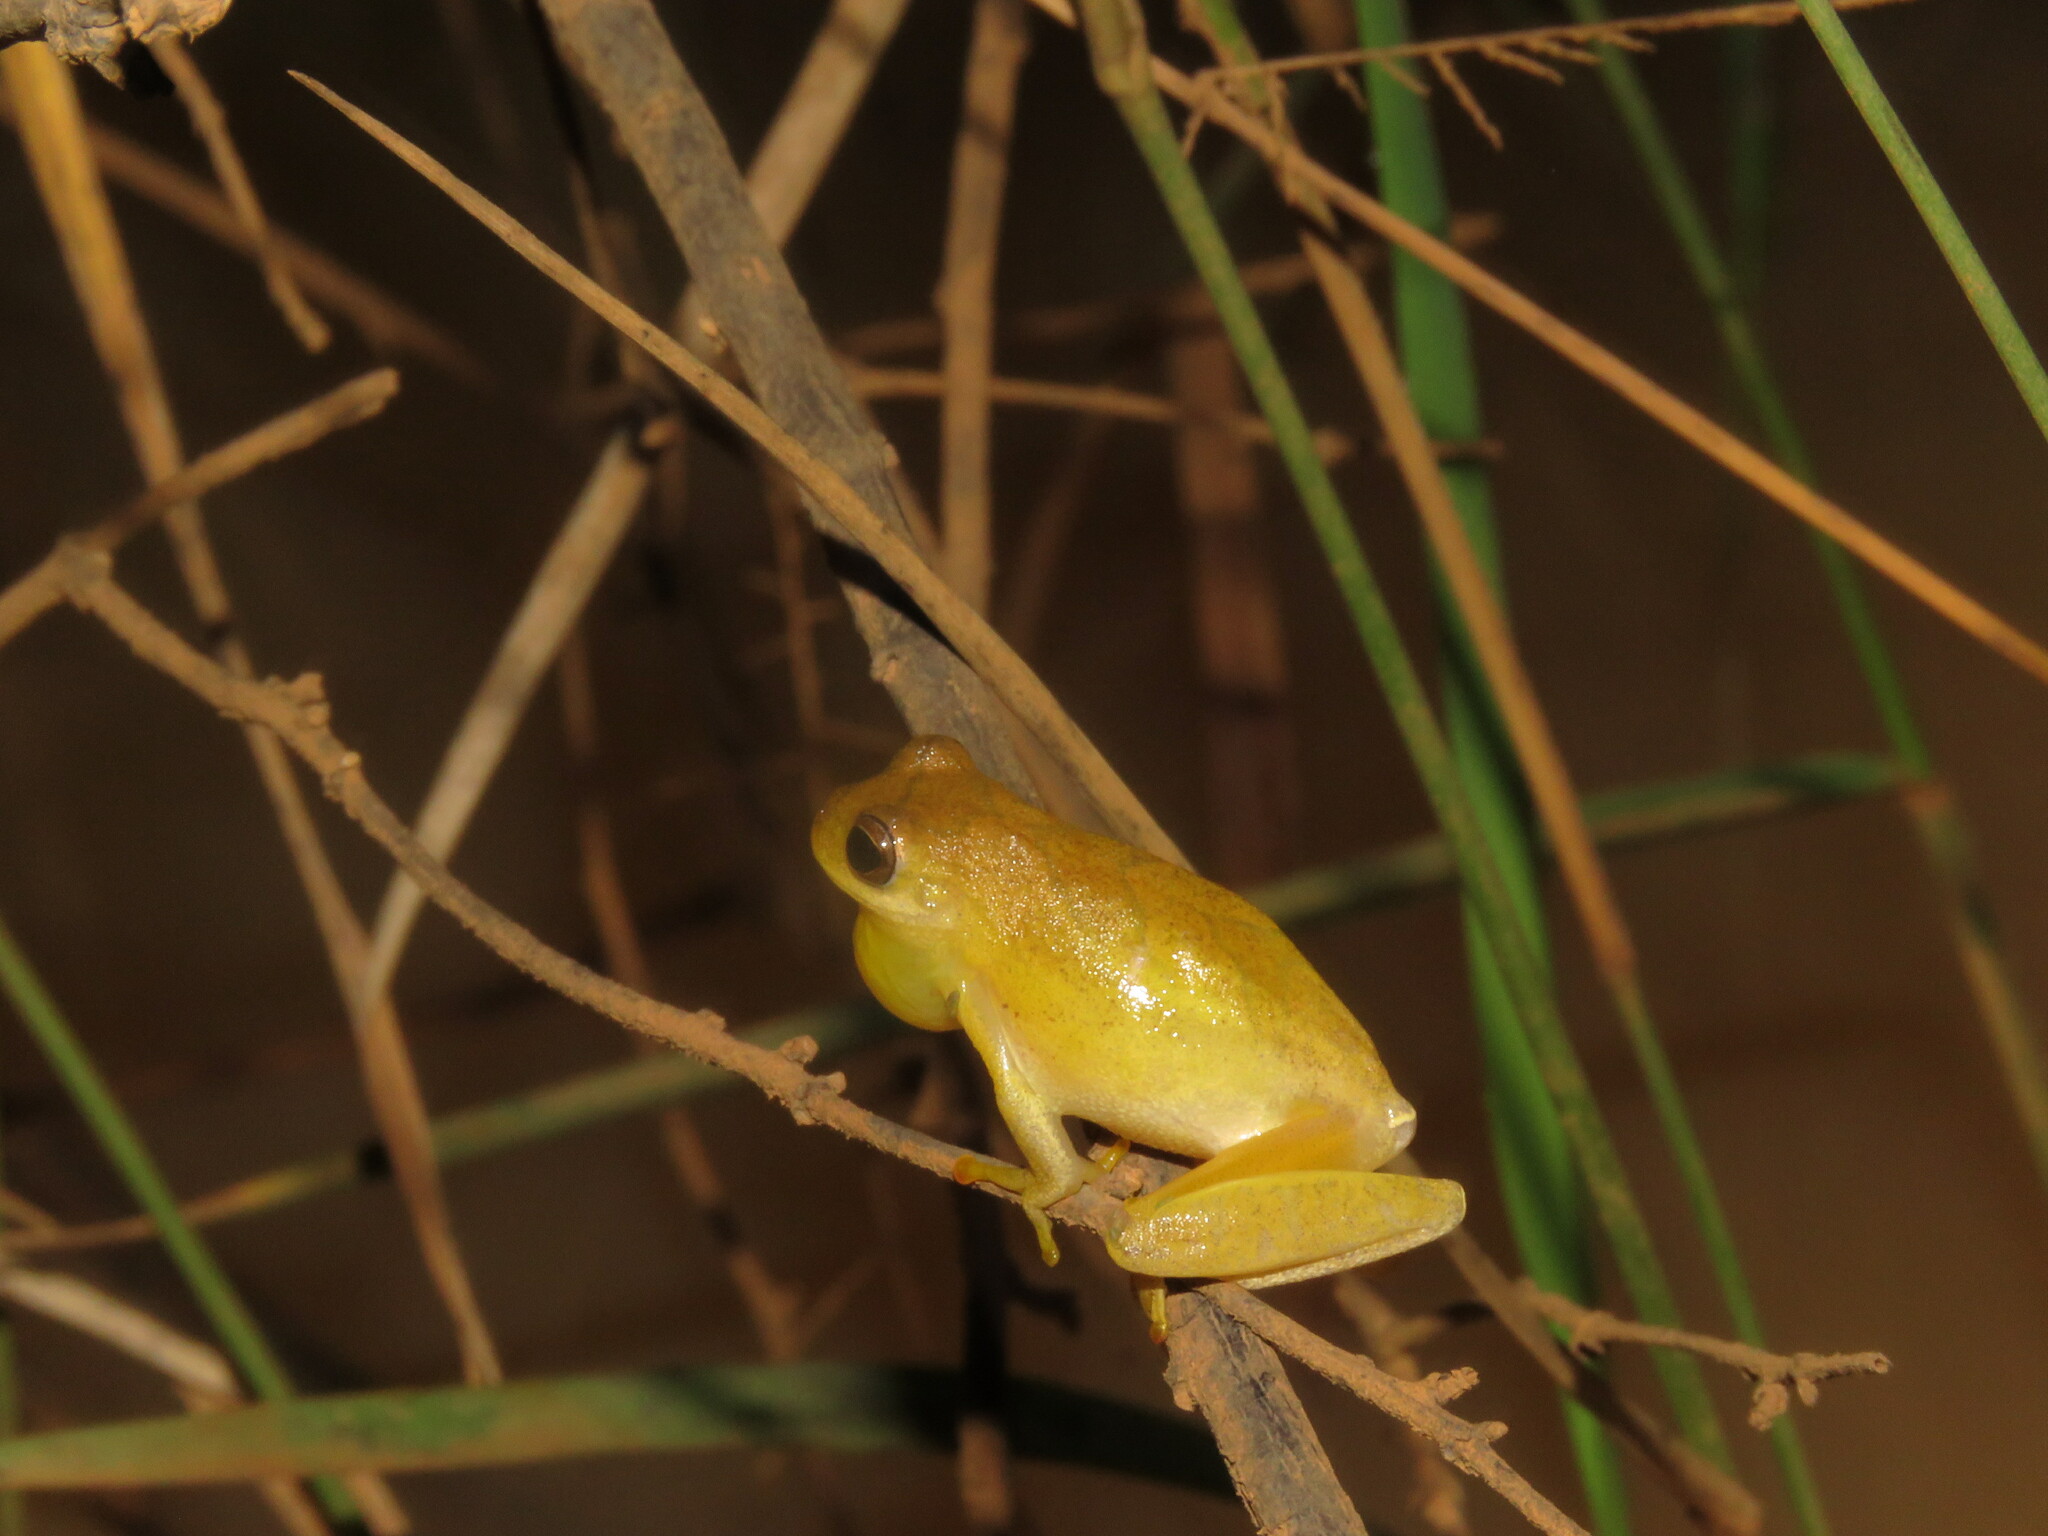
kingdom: Animalia
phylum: Chordata
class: Amphibia
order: Anura
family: Hylidae
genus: Dendropsophus
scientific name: Dendropsophus minutus
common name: Lesser treefrog
